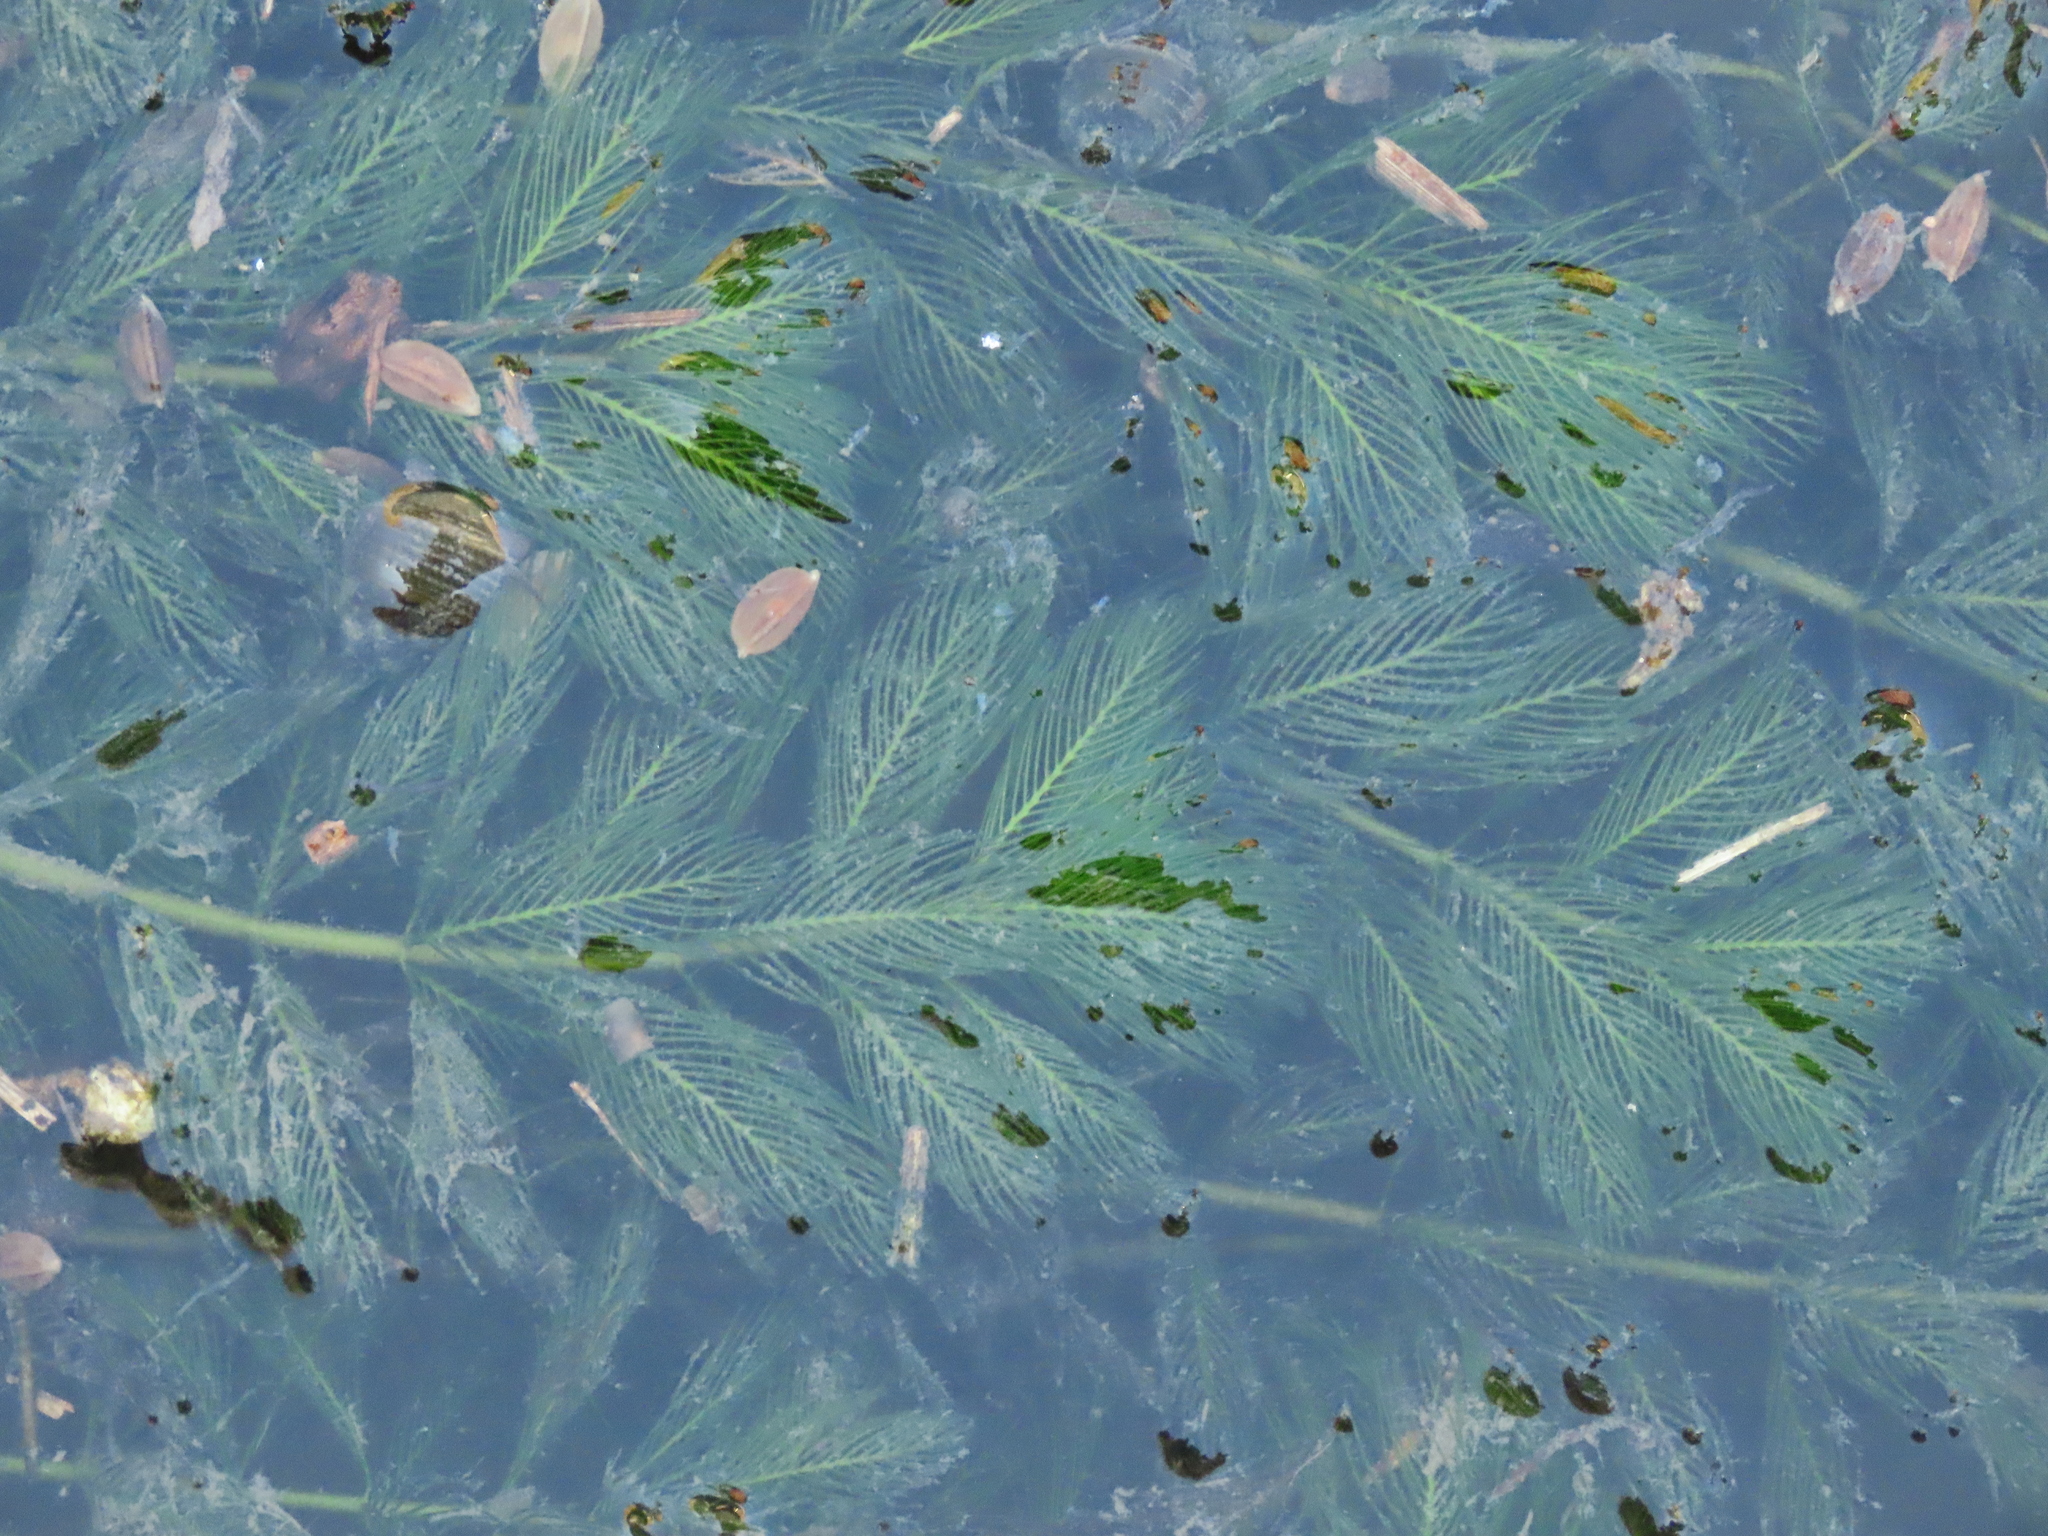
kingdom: Plantae
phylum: Tracheophyta
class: Magnoliopsida
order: Saxifragales
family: Haloragaceae
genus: Myriophyllum
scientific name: Myriophyllum spicatum
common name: Spiked water-milfoil
